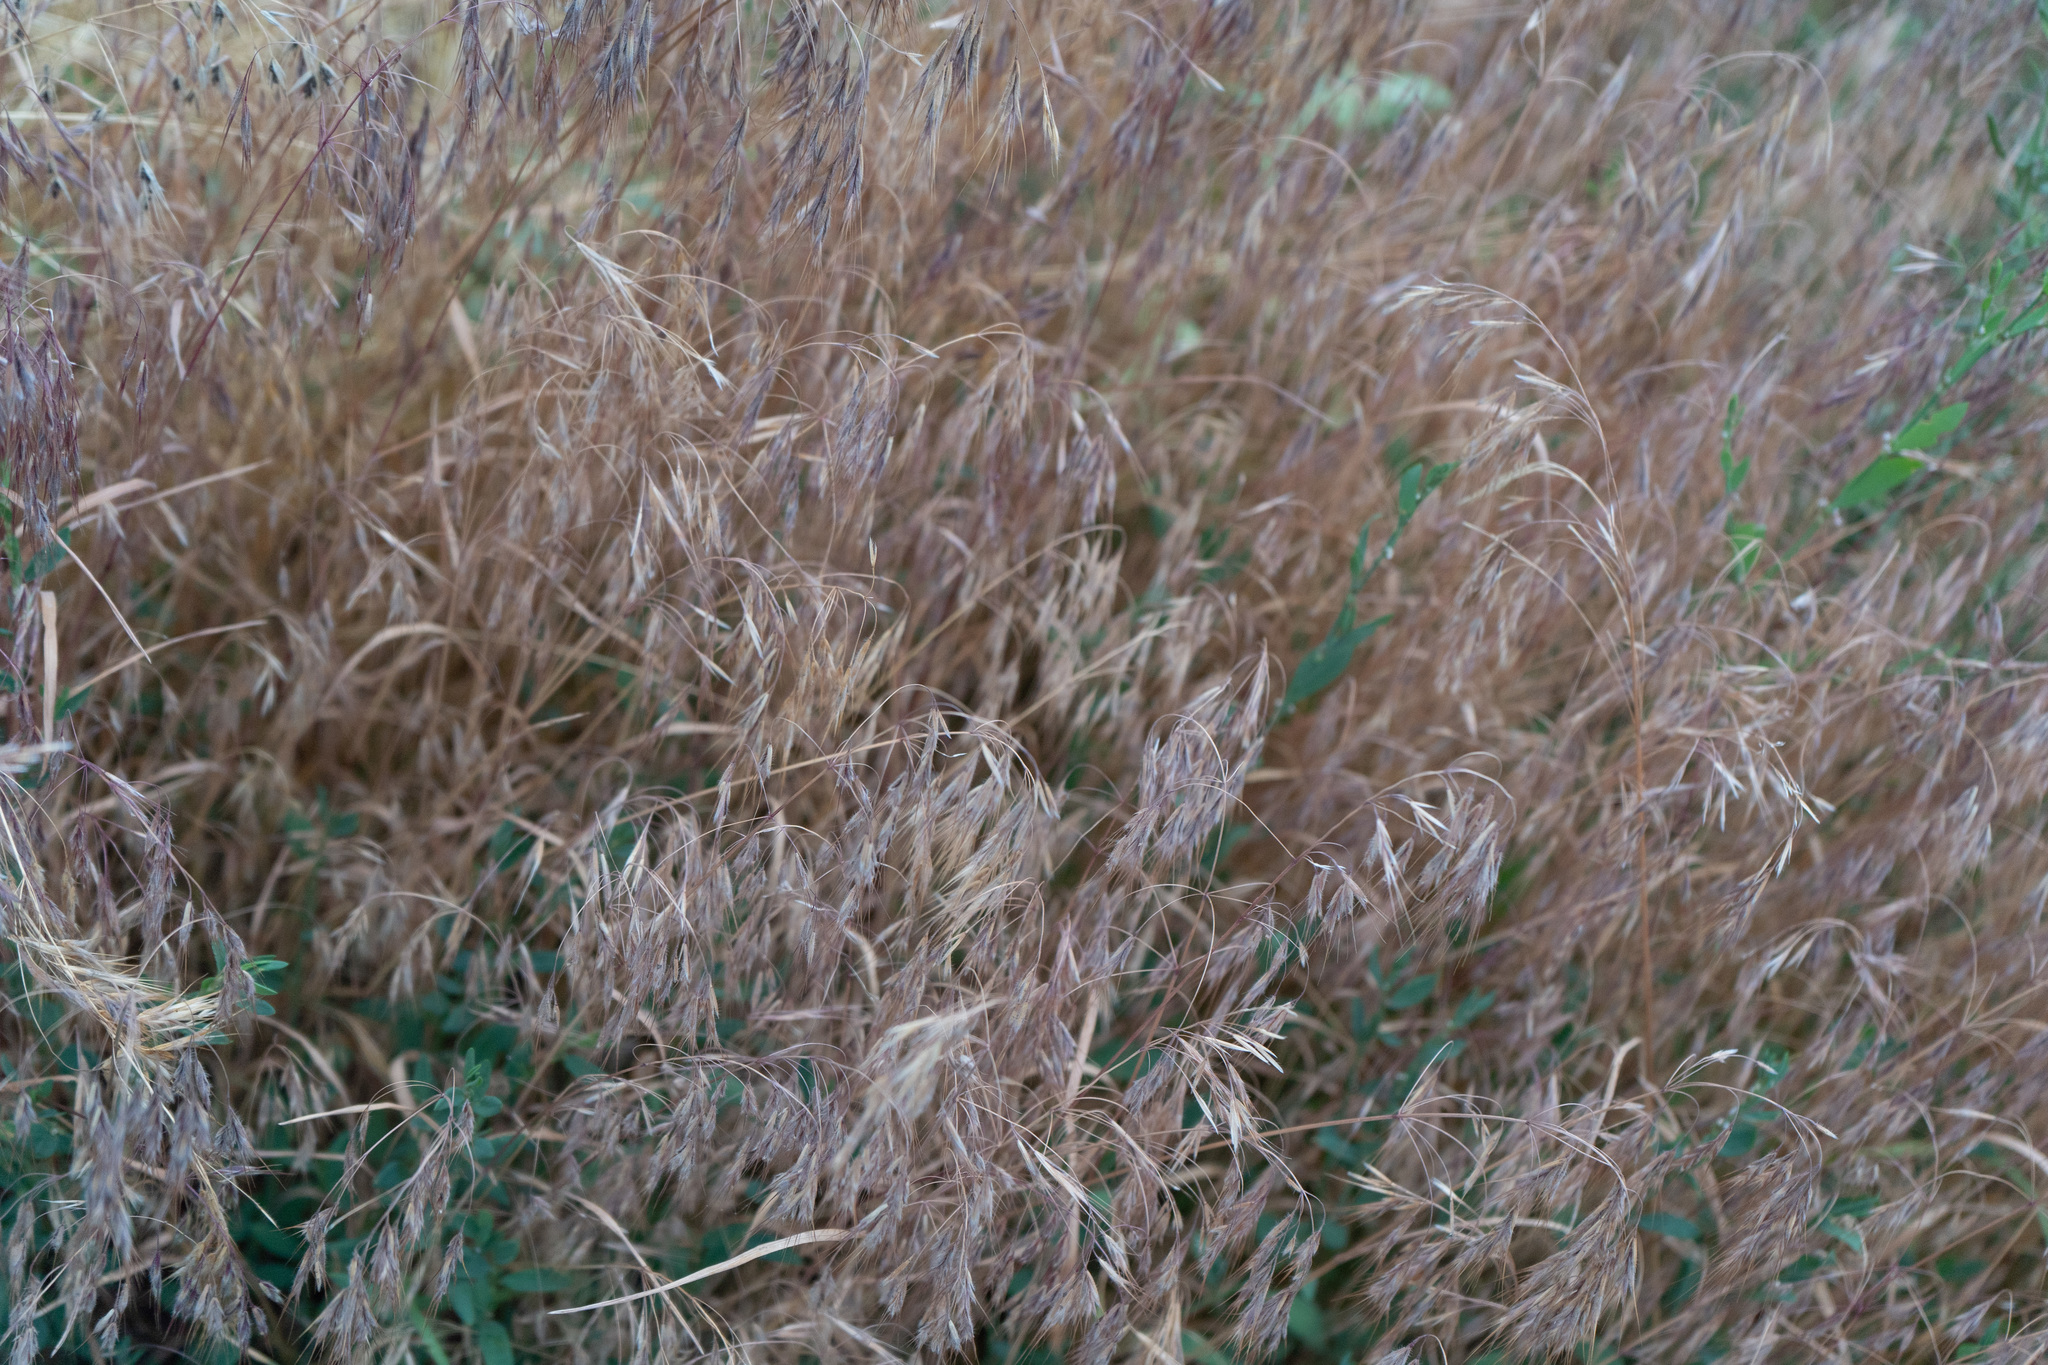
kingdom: Plantae
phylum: Tracheophyta
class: Liliopsida
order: Poales
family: Poaceae
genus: Bromus
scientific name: Bromus tectorum
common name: Cheatgrass
